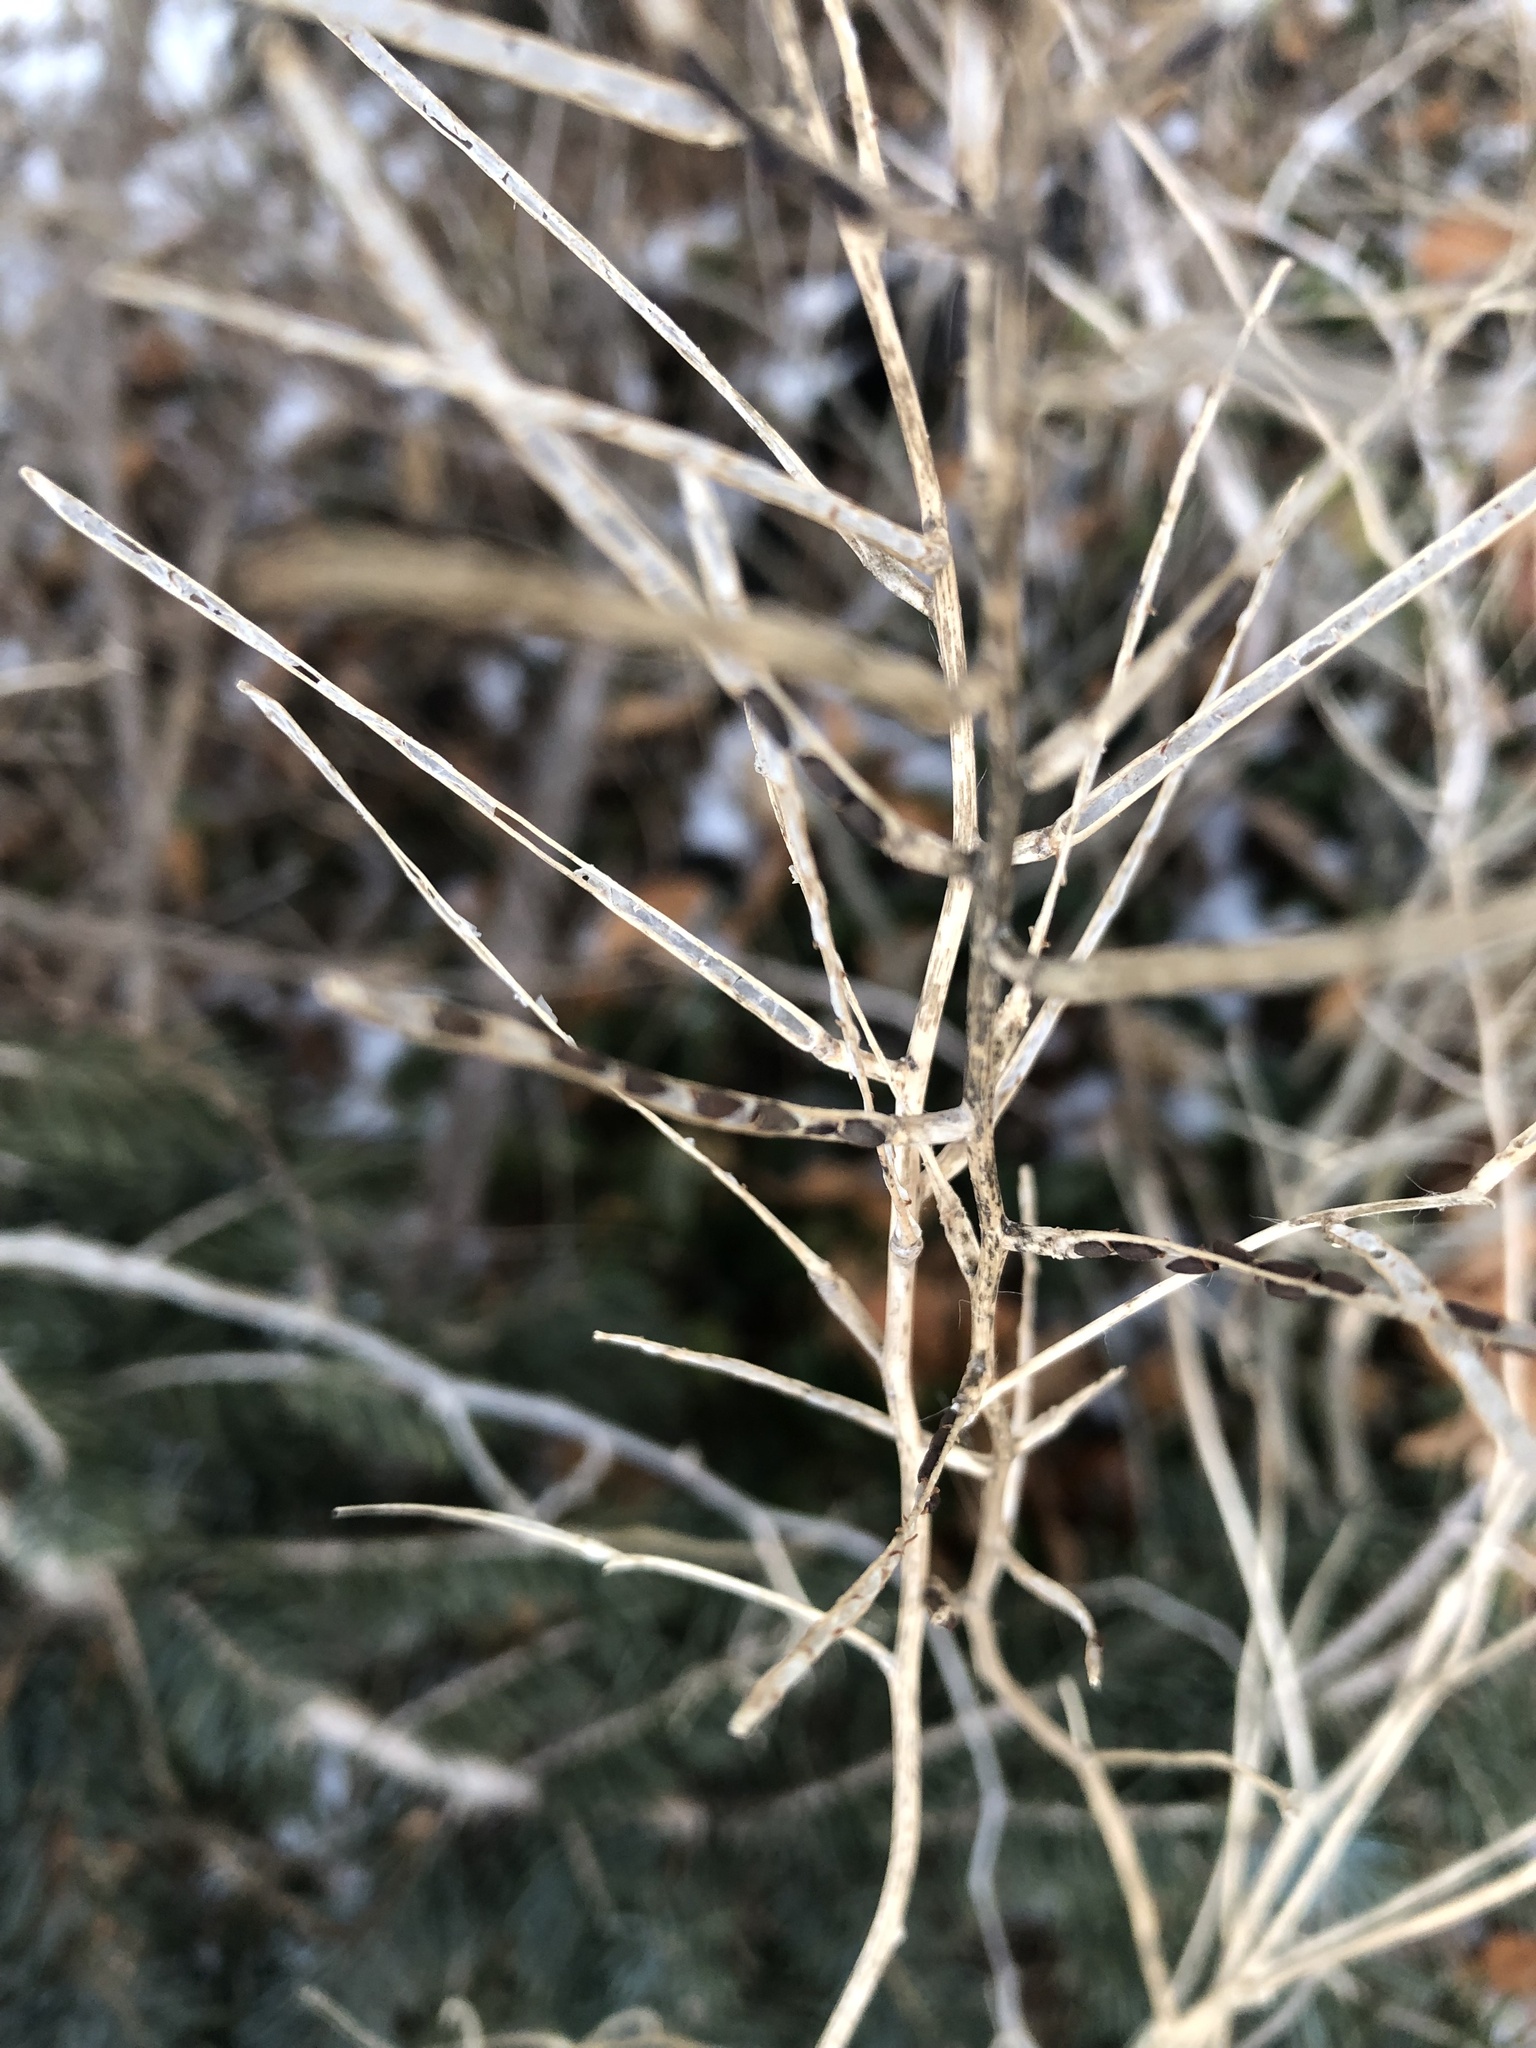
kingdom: Plantae
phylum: Tracheophyta
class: Magnoliopsida
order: Brassicales
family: Brassicaceae
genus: Alliaria
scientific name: Alliaria petiolata
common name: Garlic mustard
